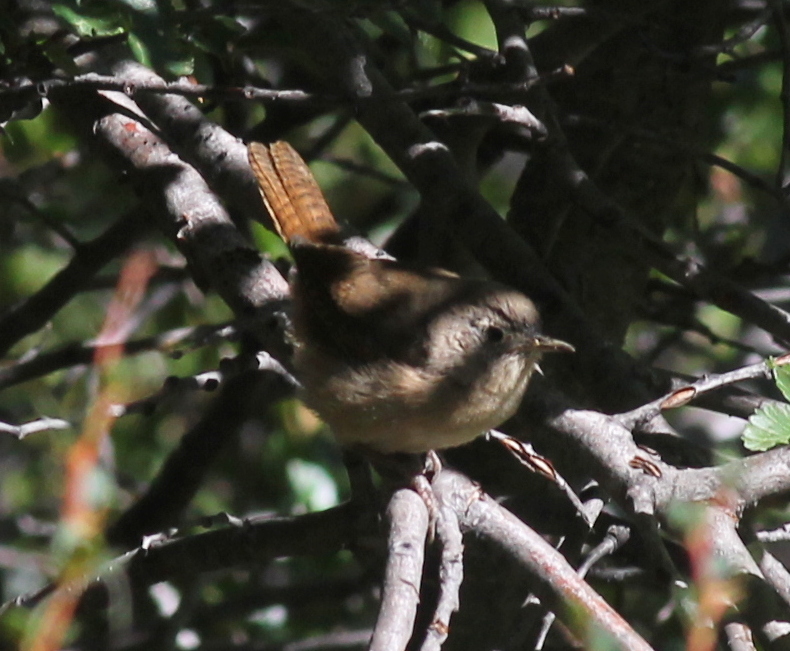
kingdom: Animalia
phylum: Chordata
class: Aves
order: Passeriformes
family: Troglodytidae
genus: Troglodytes
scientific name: Troglodytes aedon
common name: House wren
